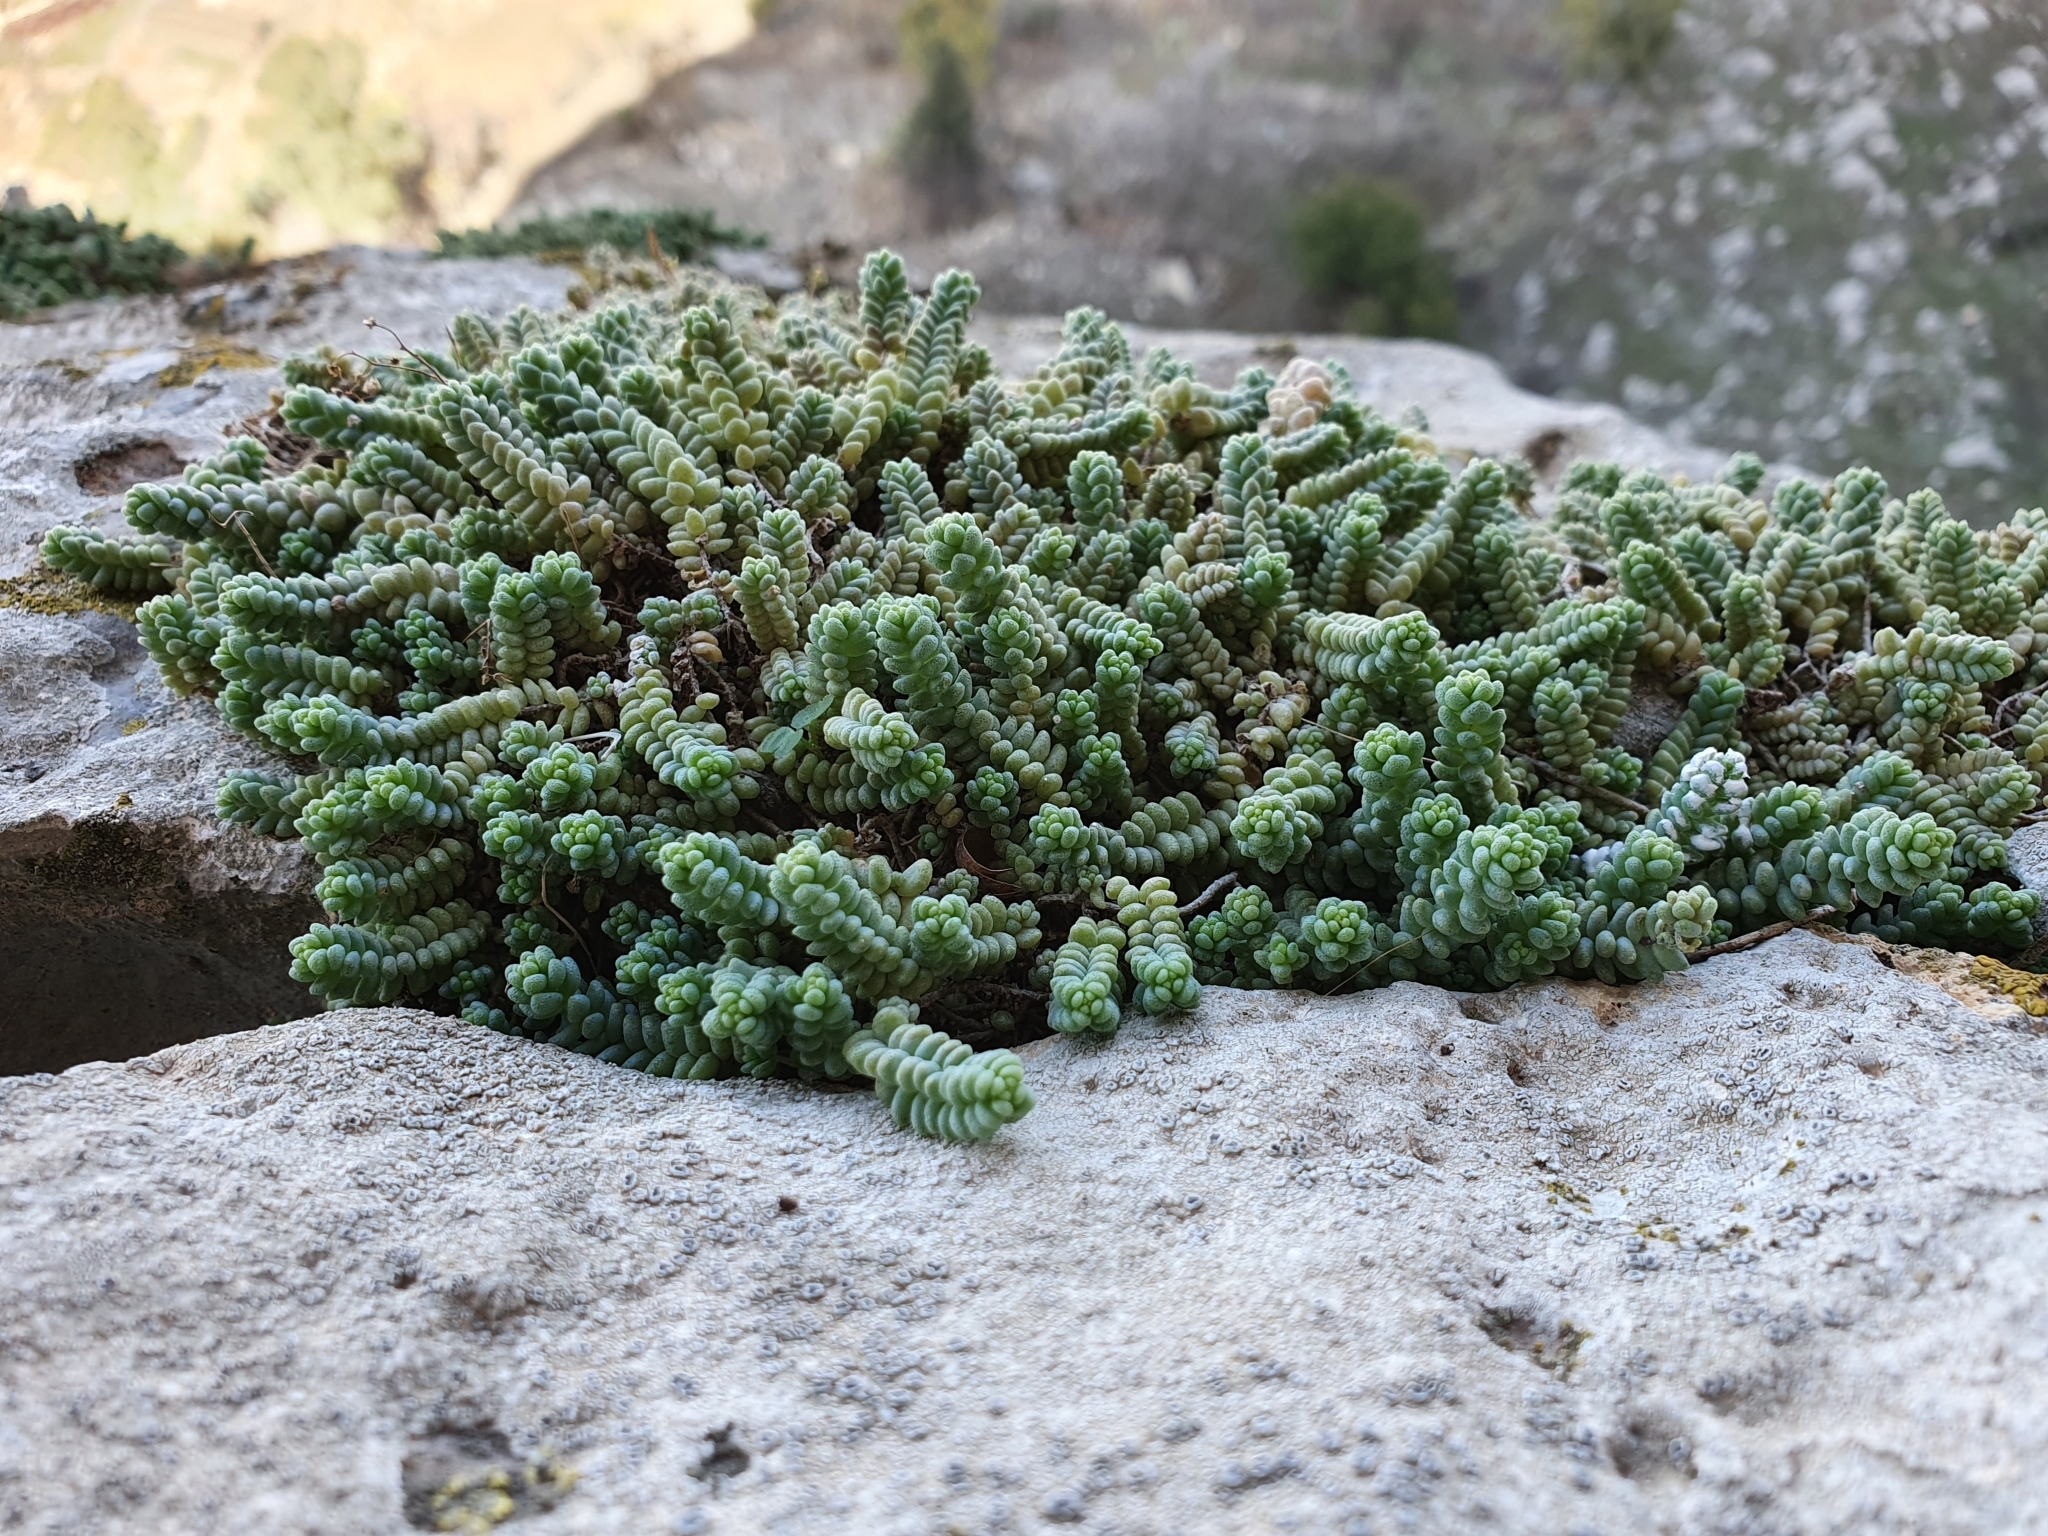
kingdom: Plantae
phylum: Tracheophyta
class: Magnoliopsida
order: Saxifragales
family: Crassulaceae
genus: Sedum
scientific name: Sedum dasyphyllum
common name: Thick-leaf stonecrop
